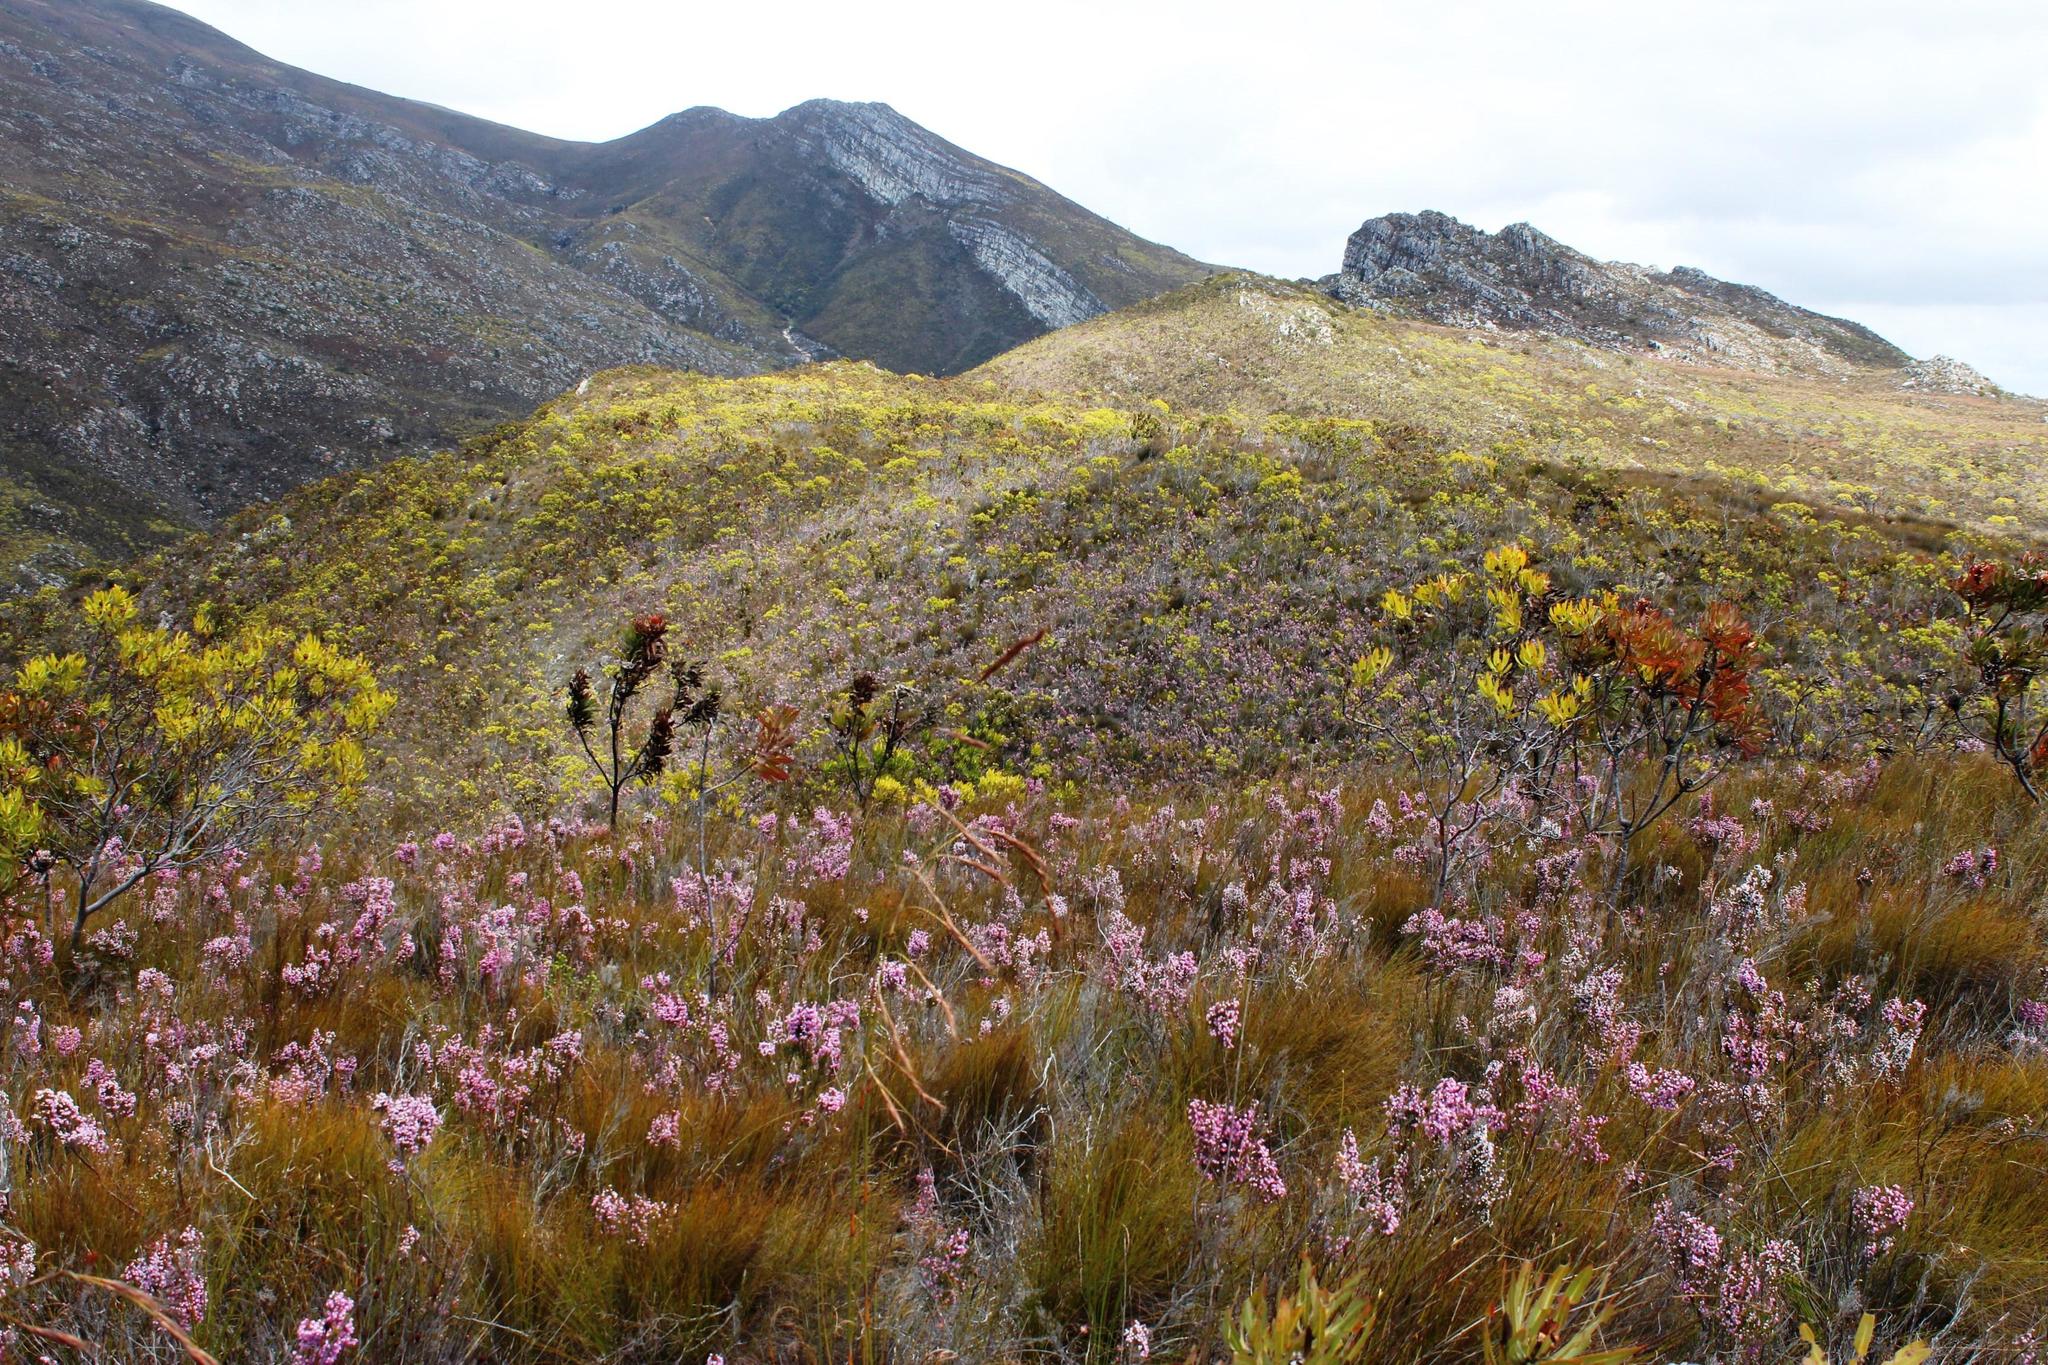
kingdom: Plantae
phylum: Tracheophyta
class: Magnoliopsida
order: Ericales
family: Ericaceae
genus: Erica
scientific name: Erica ovina
